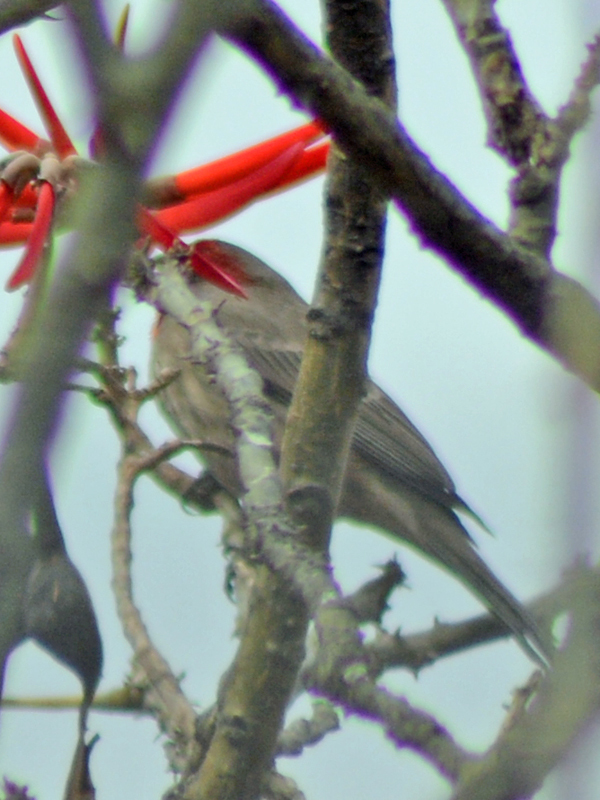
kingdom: Animalia
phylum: Chordata
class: Aves
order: Passeriformes
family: Fringillidae
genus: Haemorhous
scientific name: Haemorhous mexicanus
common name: House finch
